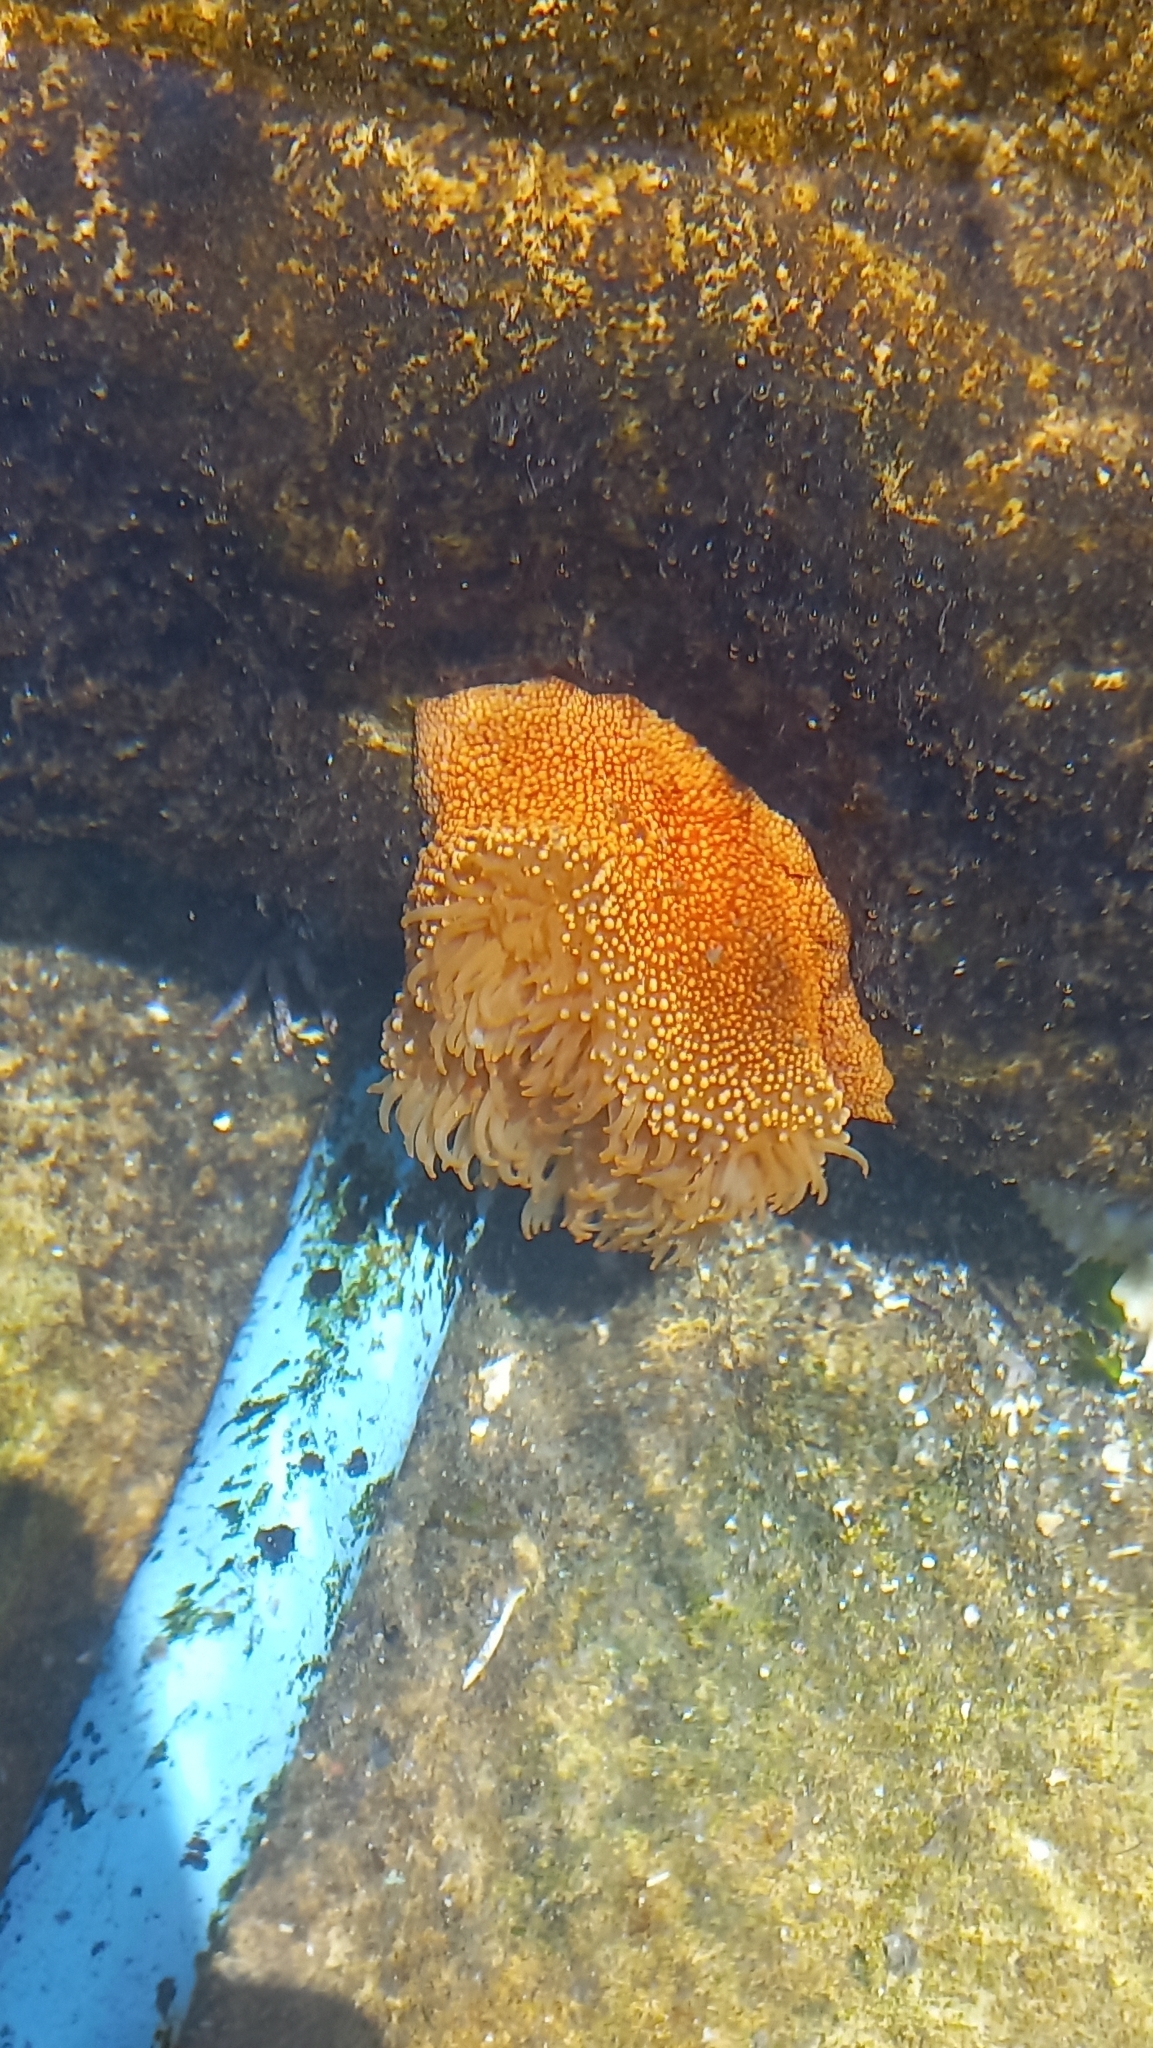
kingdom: Animalia
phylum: Cnidaria
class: Anthozoa
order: Actiniaria
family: Actiniidae
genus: Phymanthea
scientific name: Phymanthea pluvia
